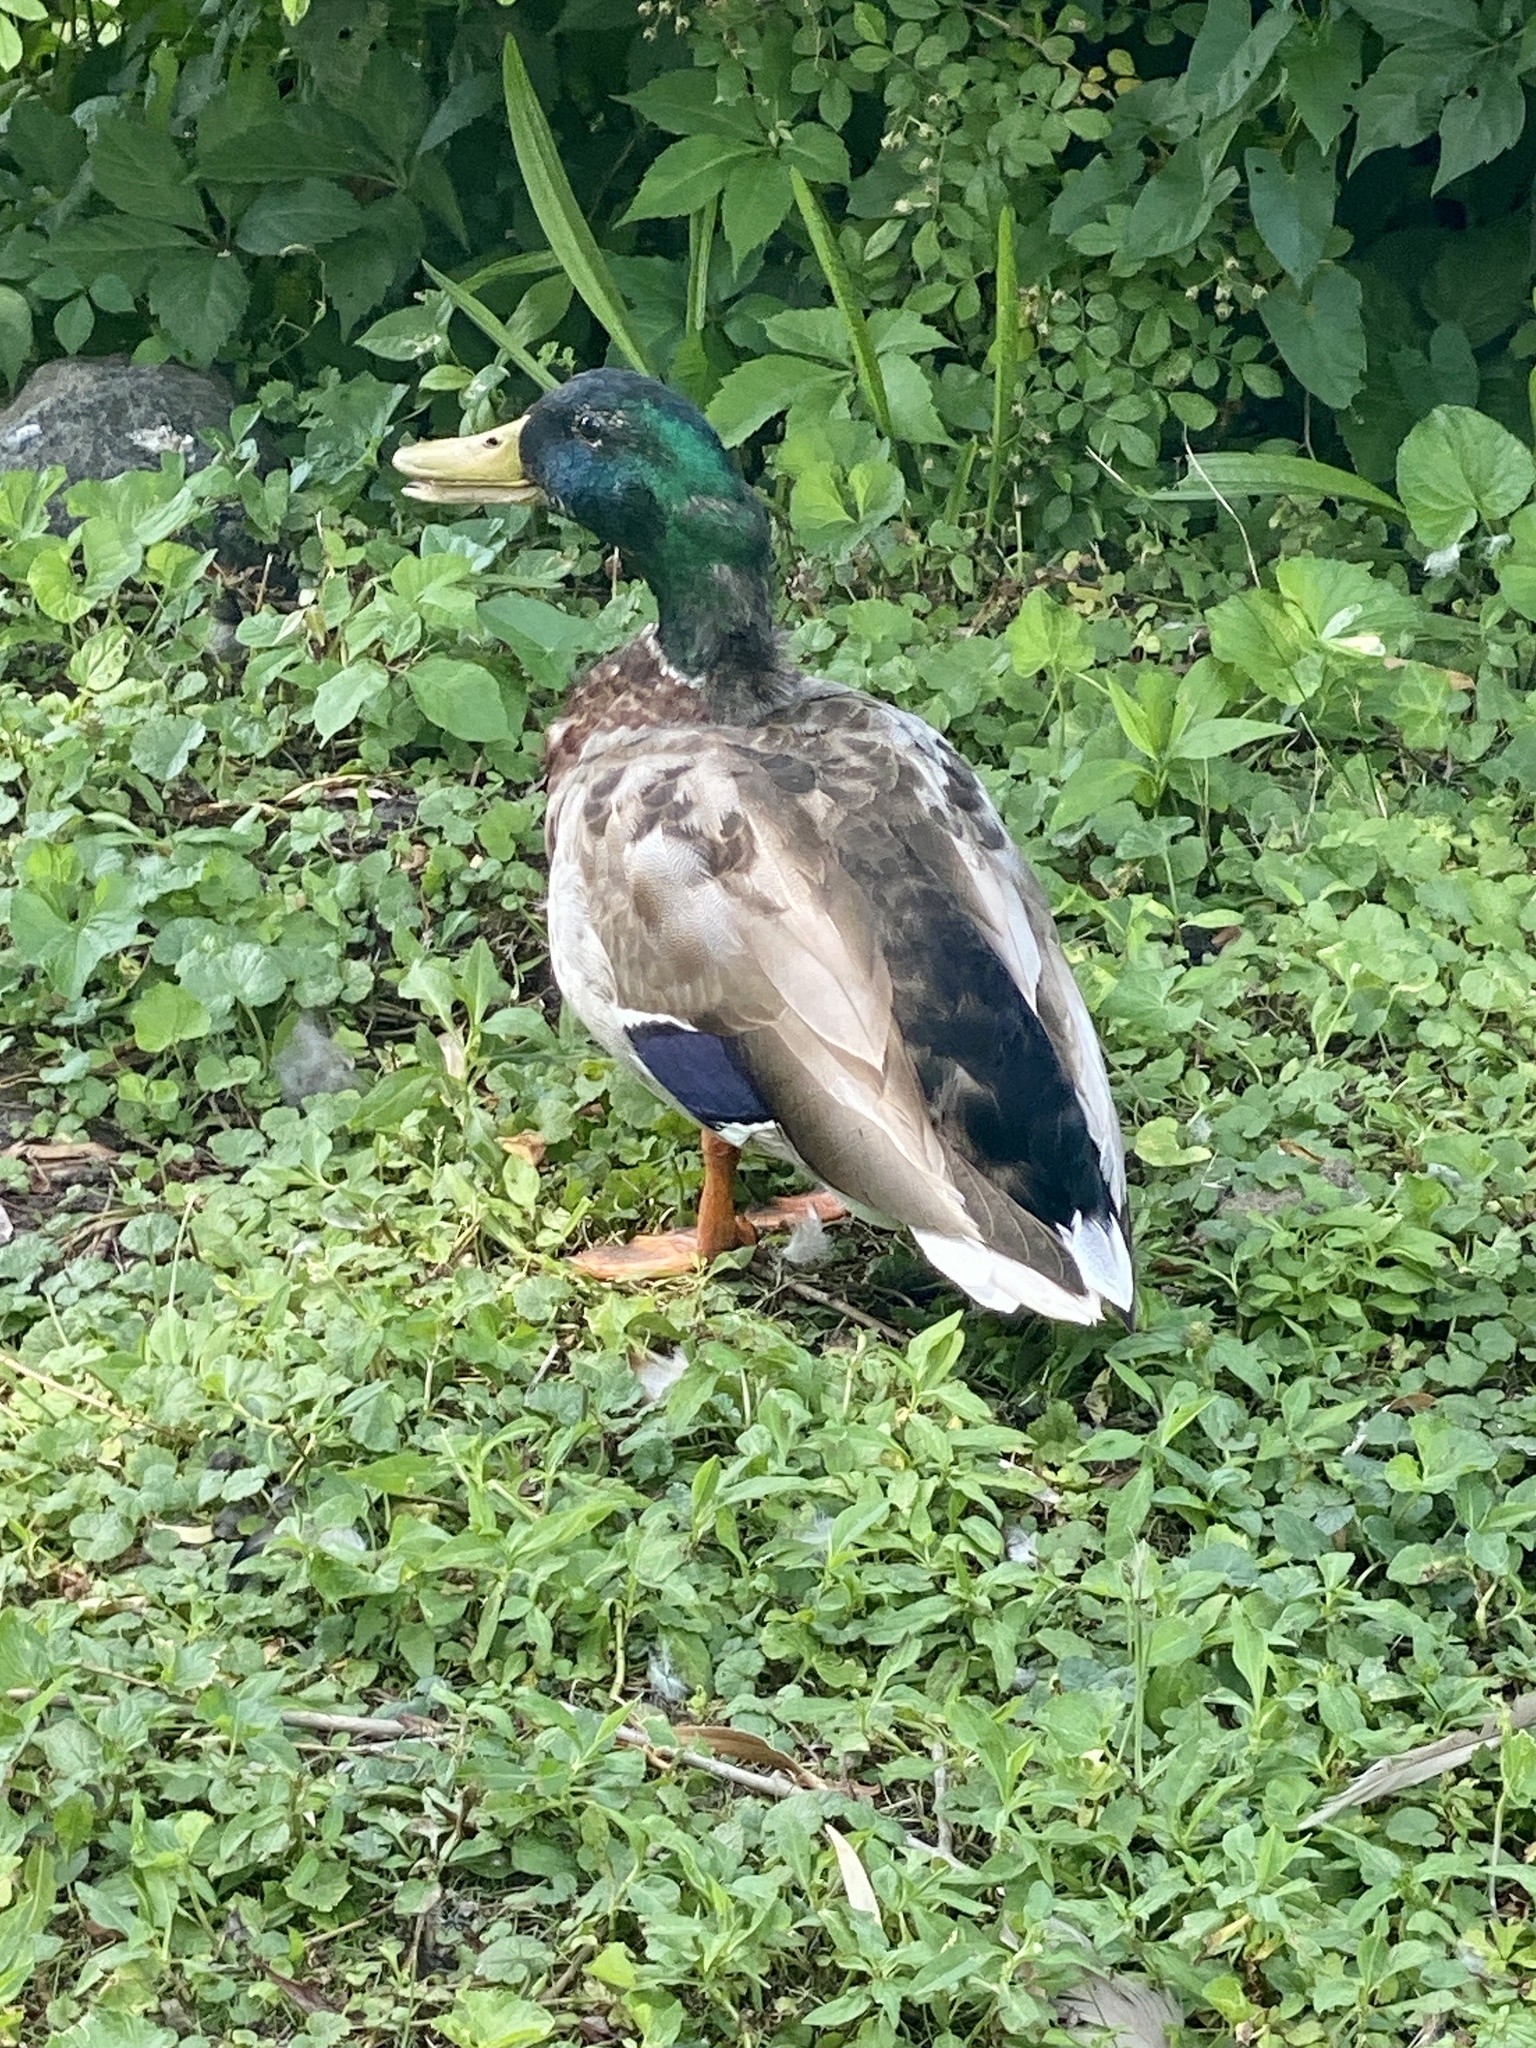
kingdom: Animalia
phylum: Chordata
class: Aves
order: Anseriformes
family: Anatidae
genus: Anas
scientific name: Anas platyrhynchos
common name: Mallard
